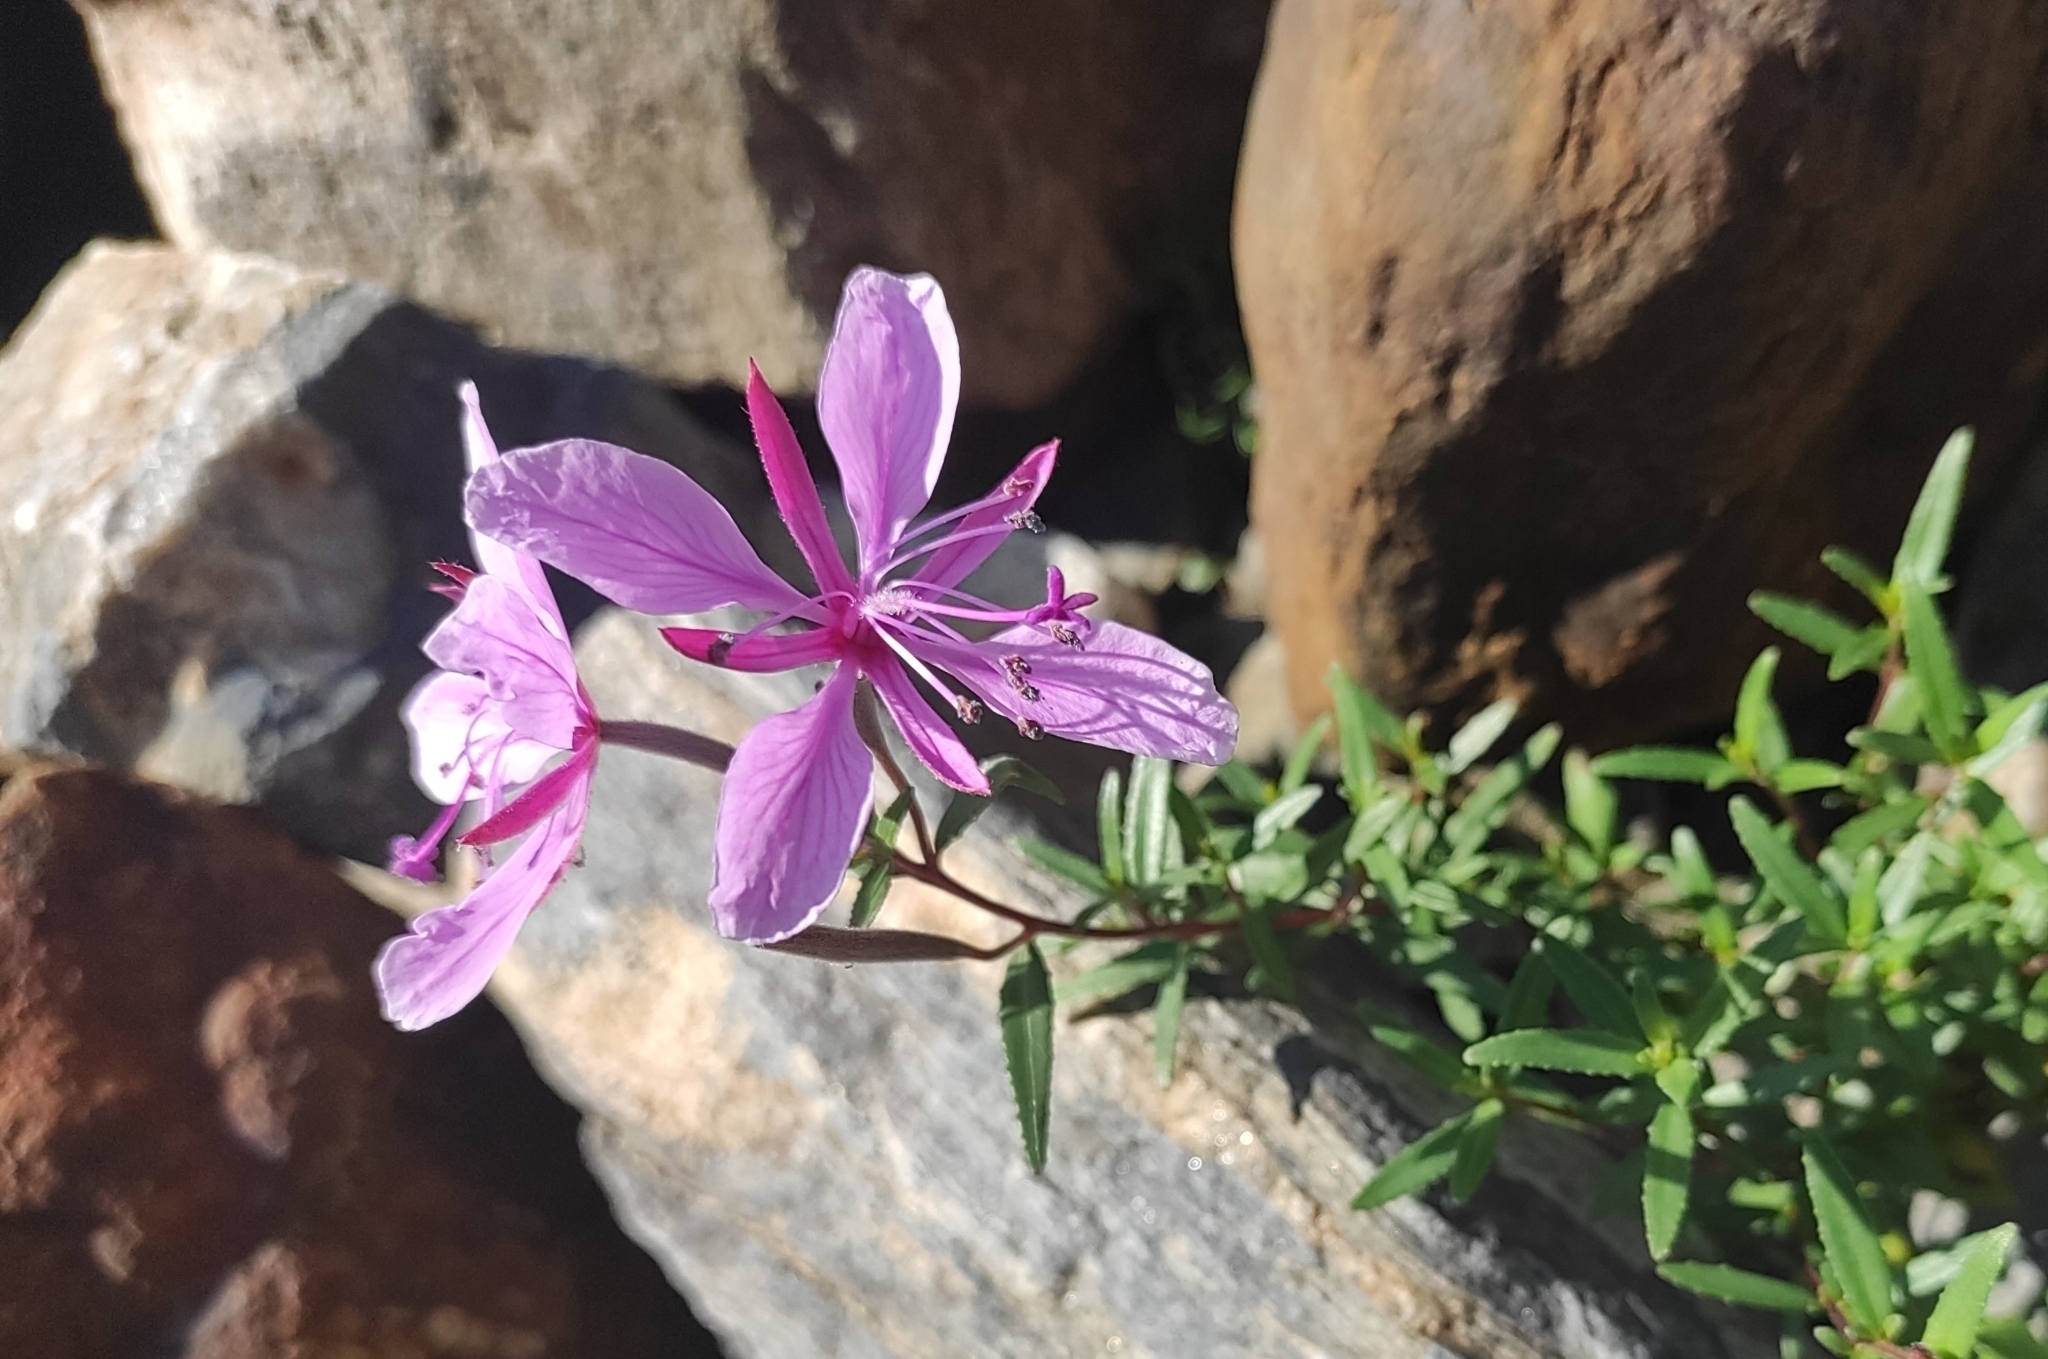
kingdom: Plantae
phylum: Tracheophyta
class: Magnoliopsida
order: Myrtales
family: Onagraceae
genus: Chamaenerion
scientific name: Chamaenerion colchicum
